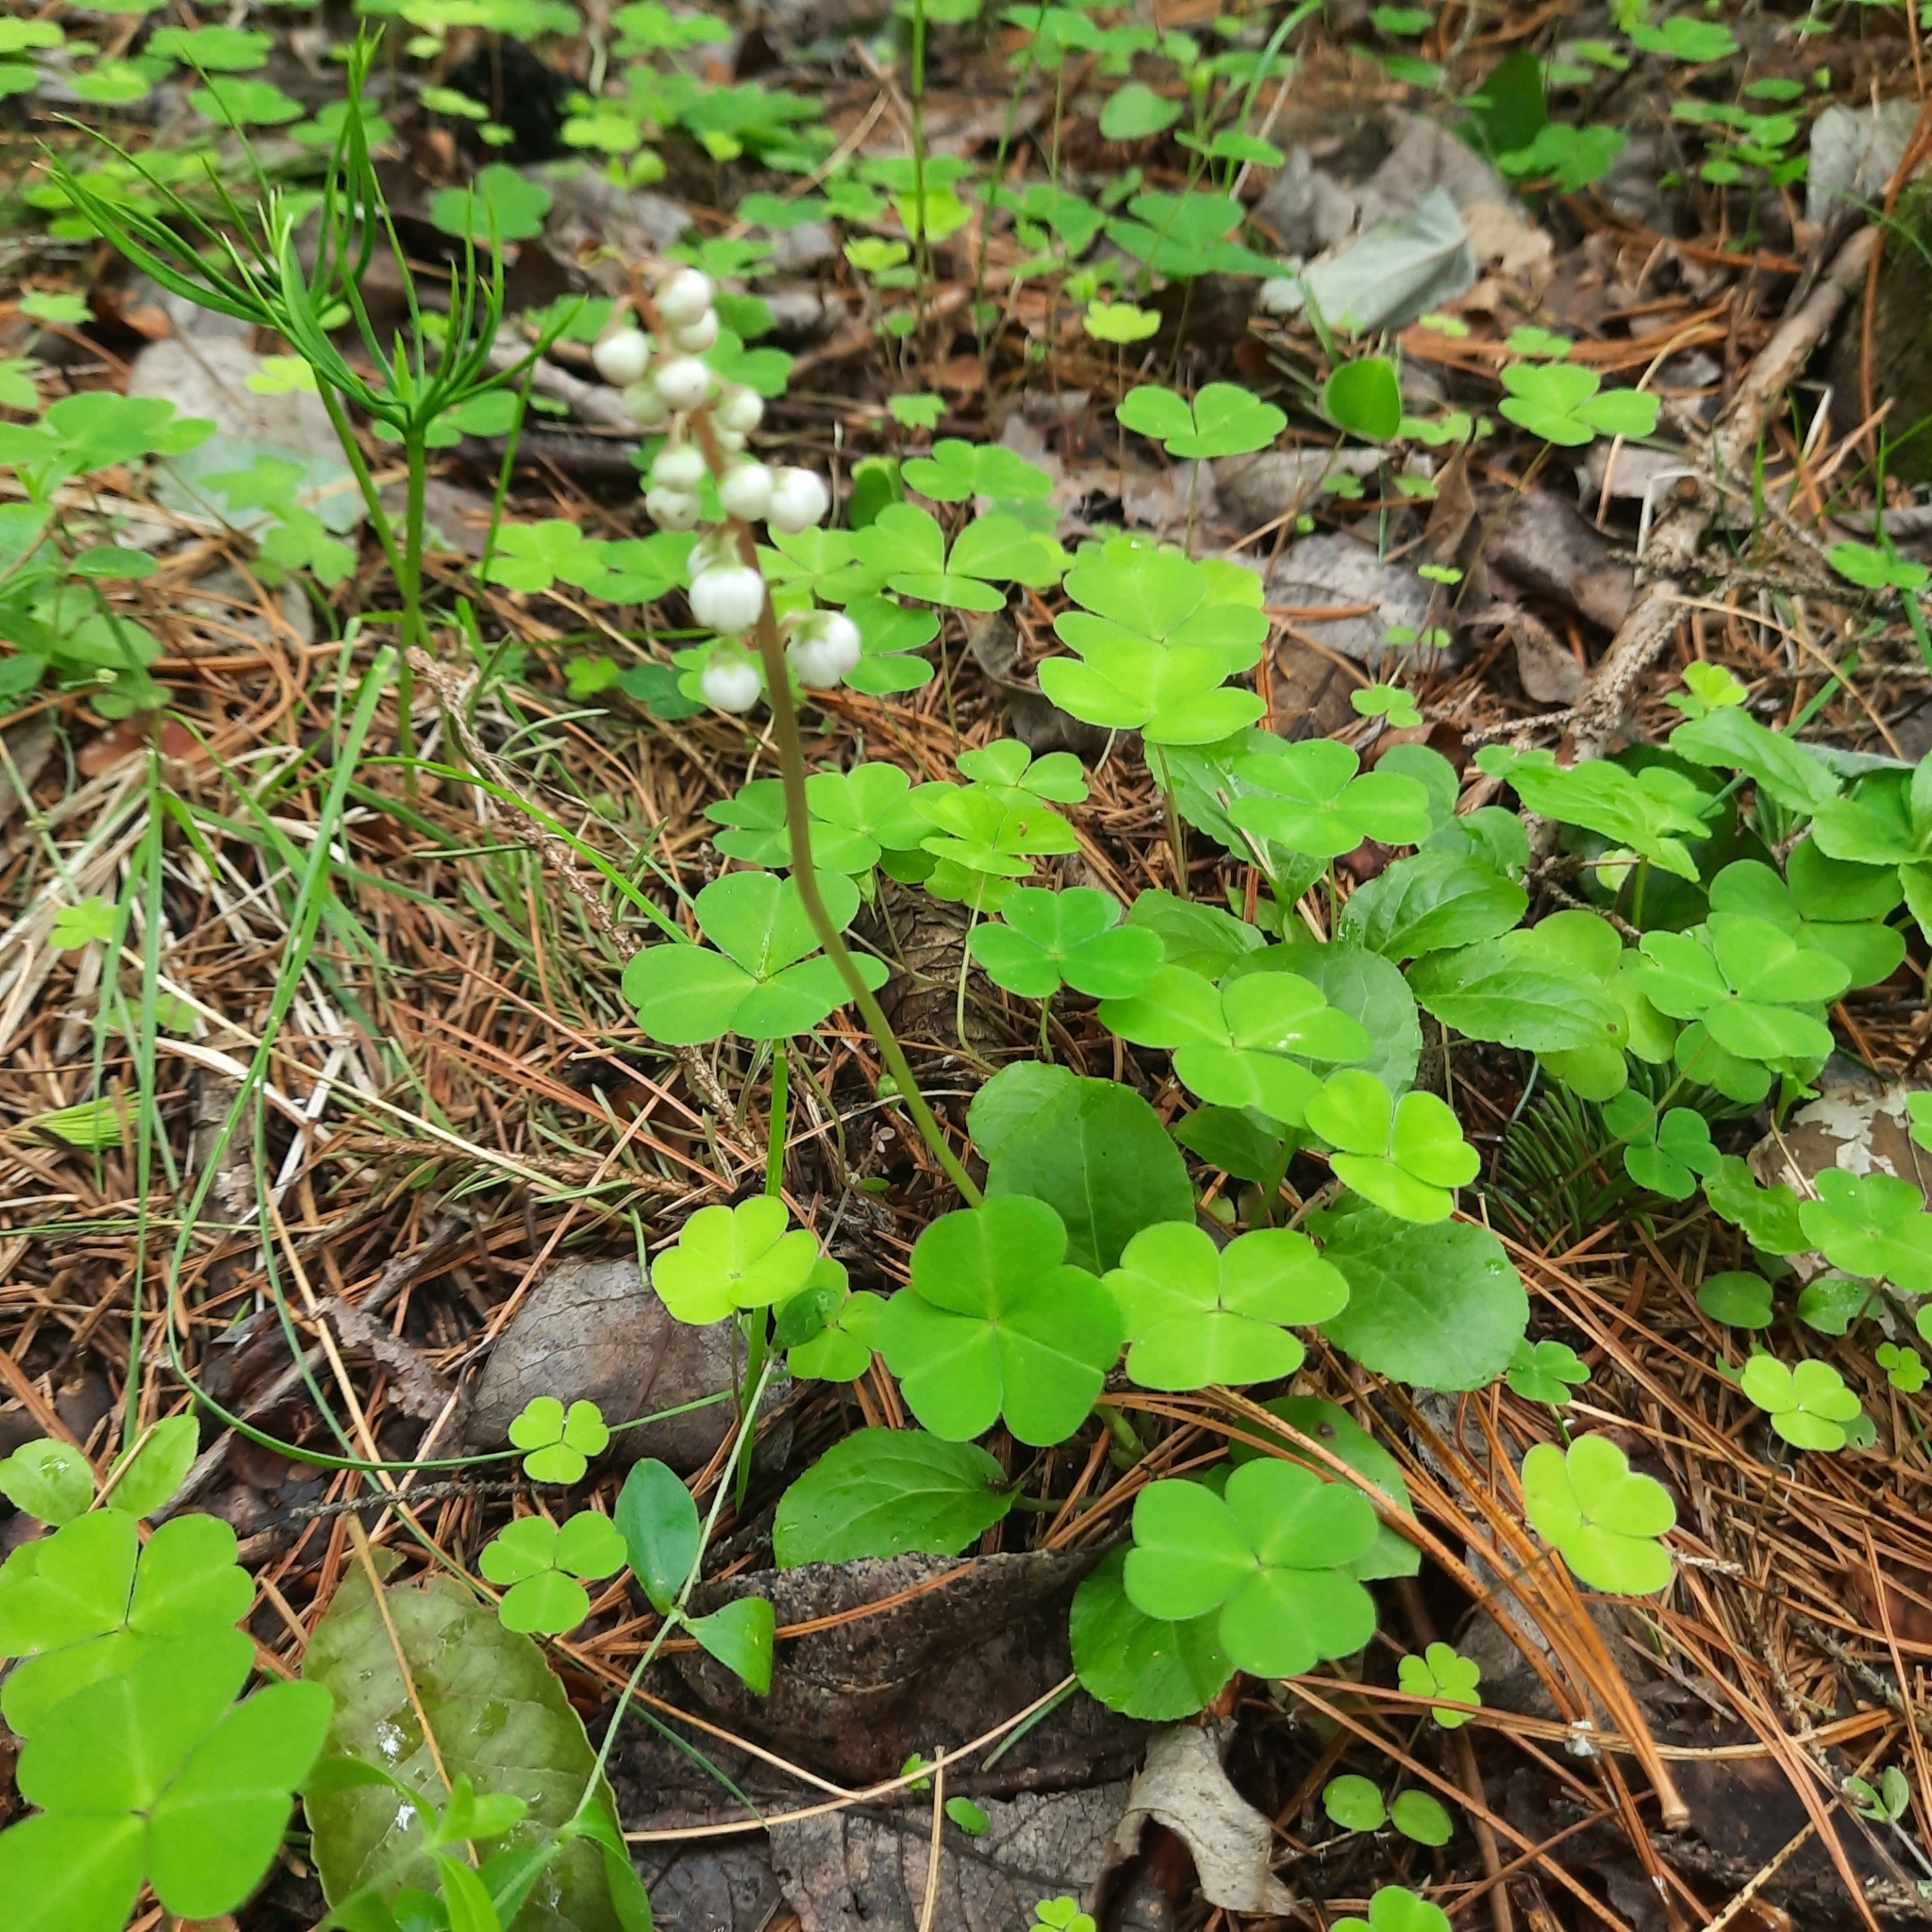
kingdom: Plantae
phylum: Tracheophyta
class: Magnoliopsida
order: Ericales
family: Ericaceae
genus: Pyrola
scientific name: Pyrola minor
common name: Common wintergreen
